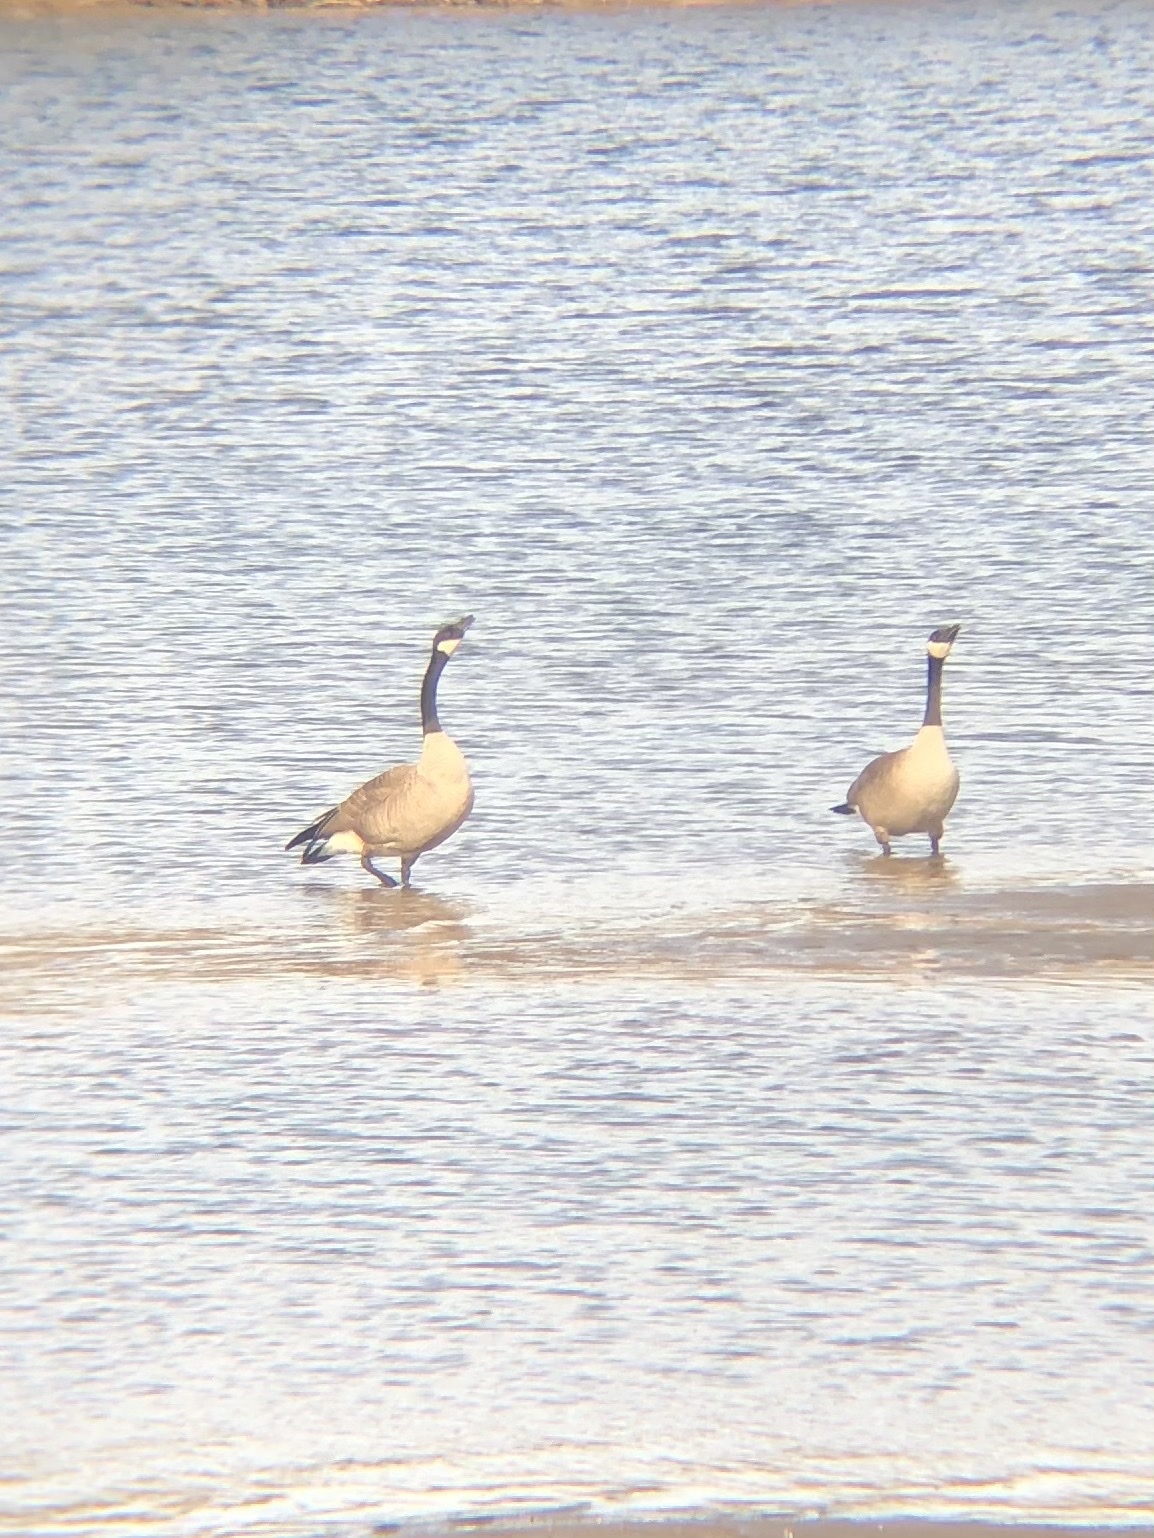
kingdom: Animalia
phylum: Chordata
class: Aves
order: Anseriformes
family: Anatidae
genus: Branta
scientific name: Branta canadensis
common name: Canada goose
